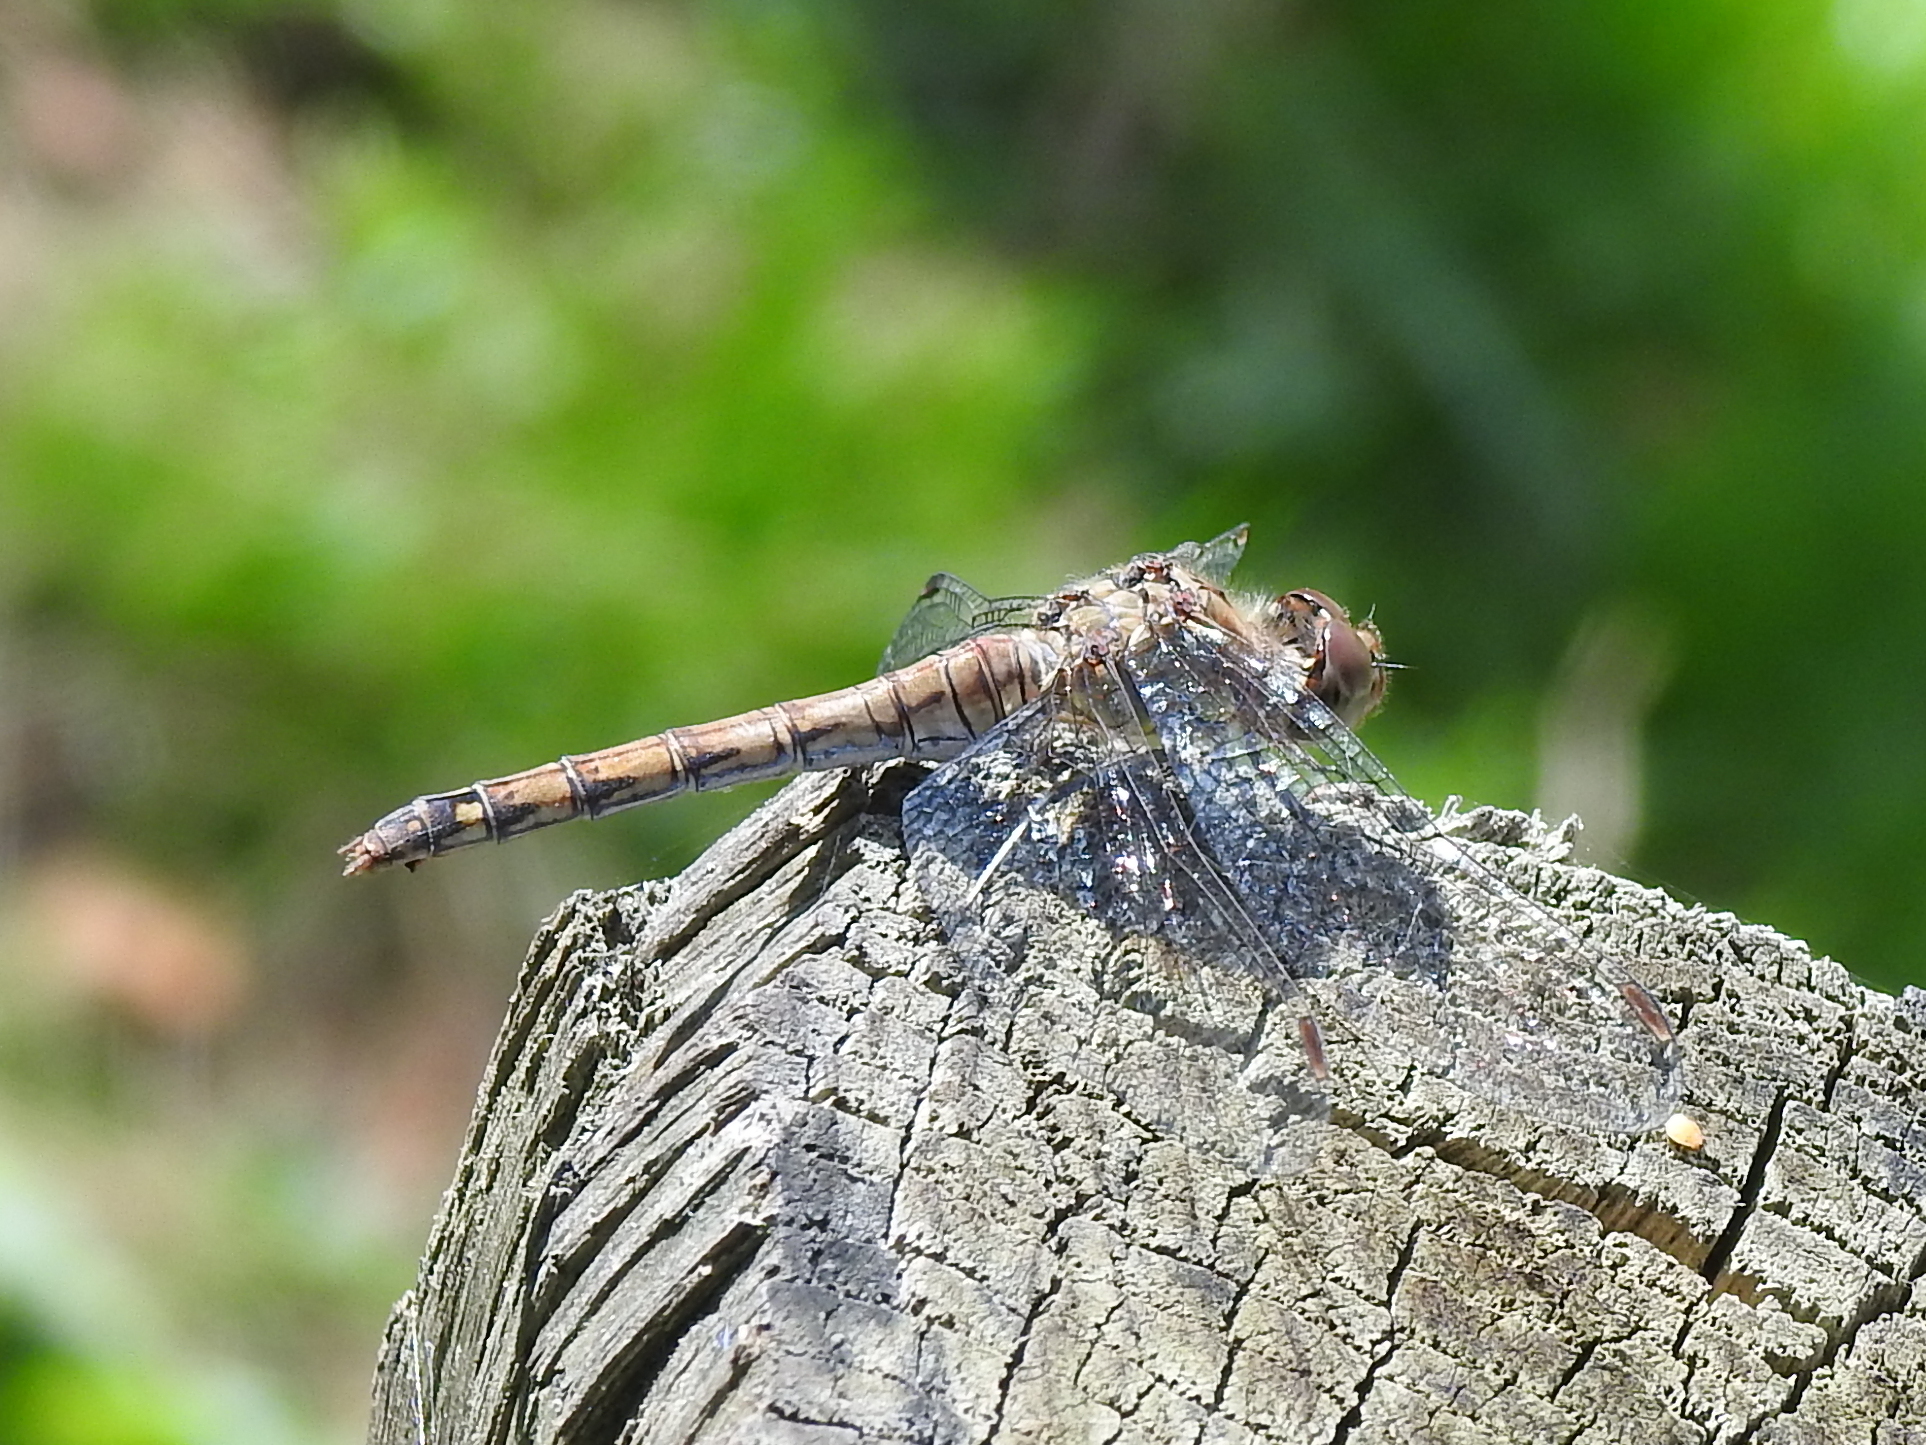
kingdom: Animalia
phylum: Arthropoda
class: Insecta
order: Odonata
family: Libellulidae
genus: Sympetrum
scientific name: Sympetrum striolatum
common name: Common darter
